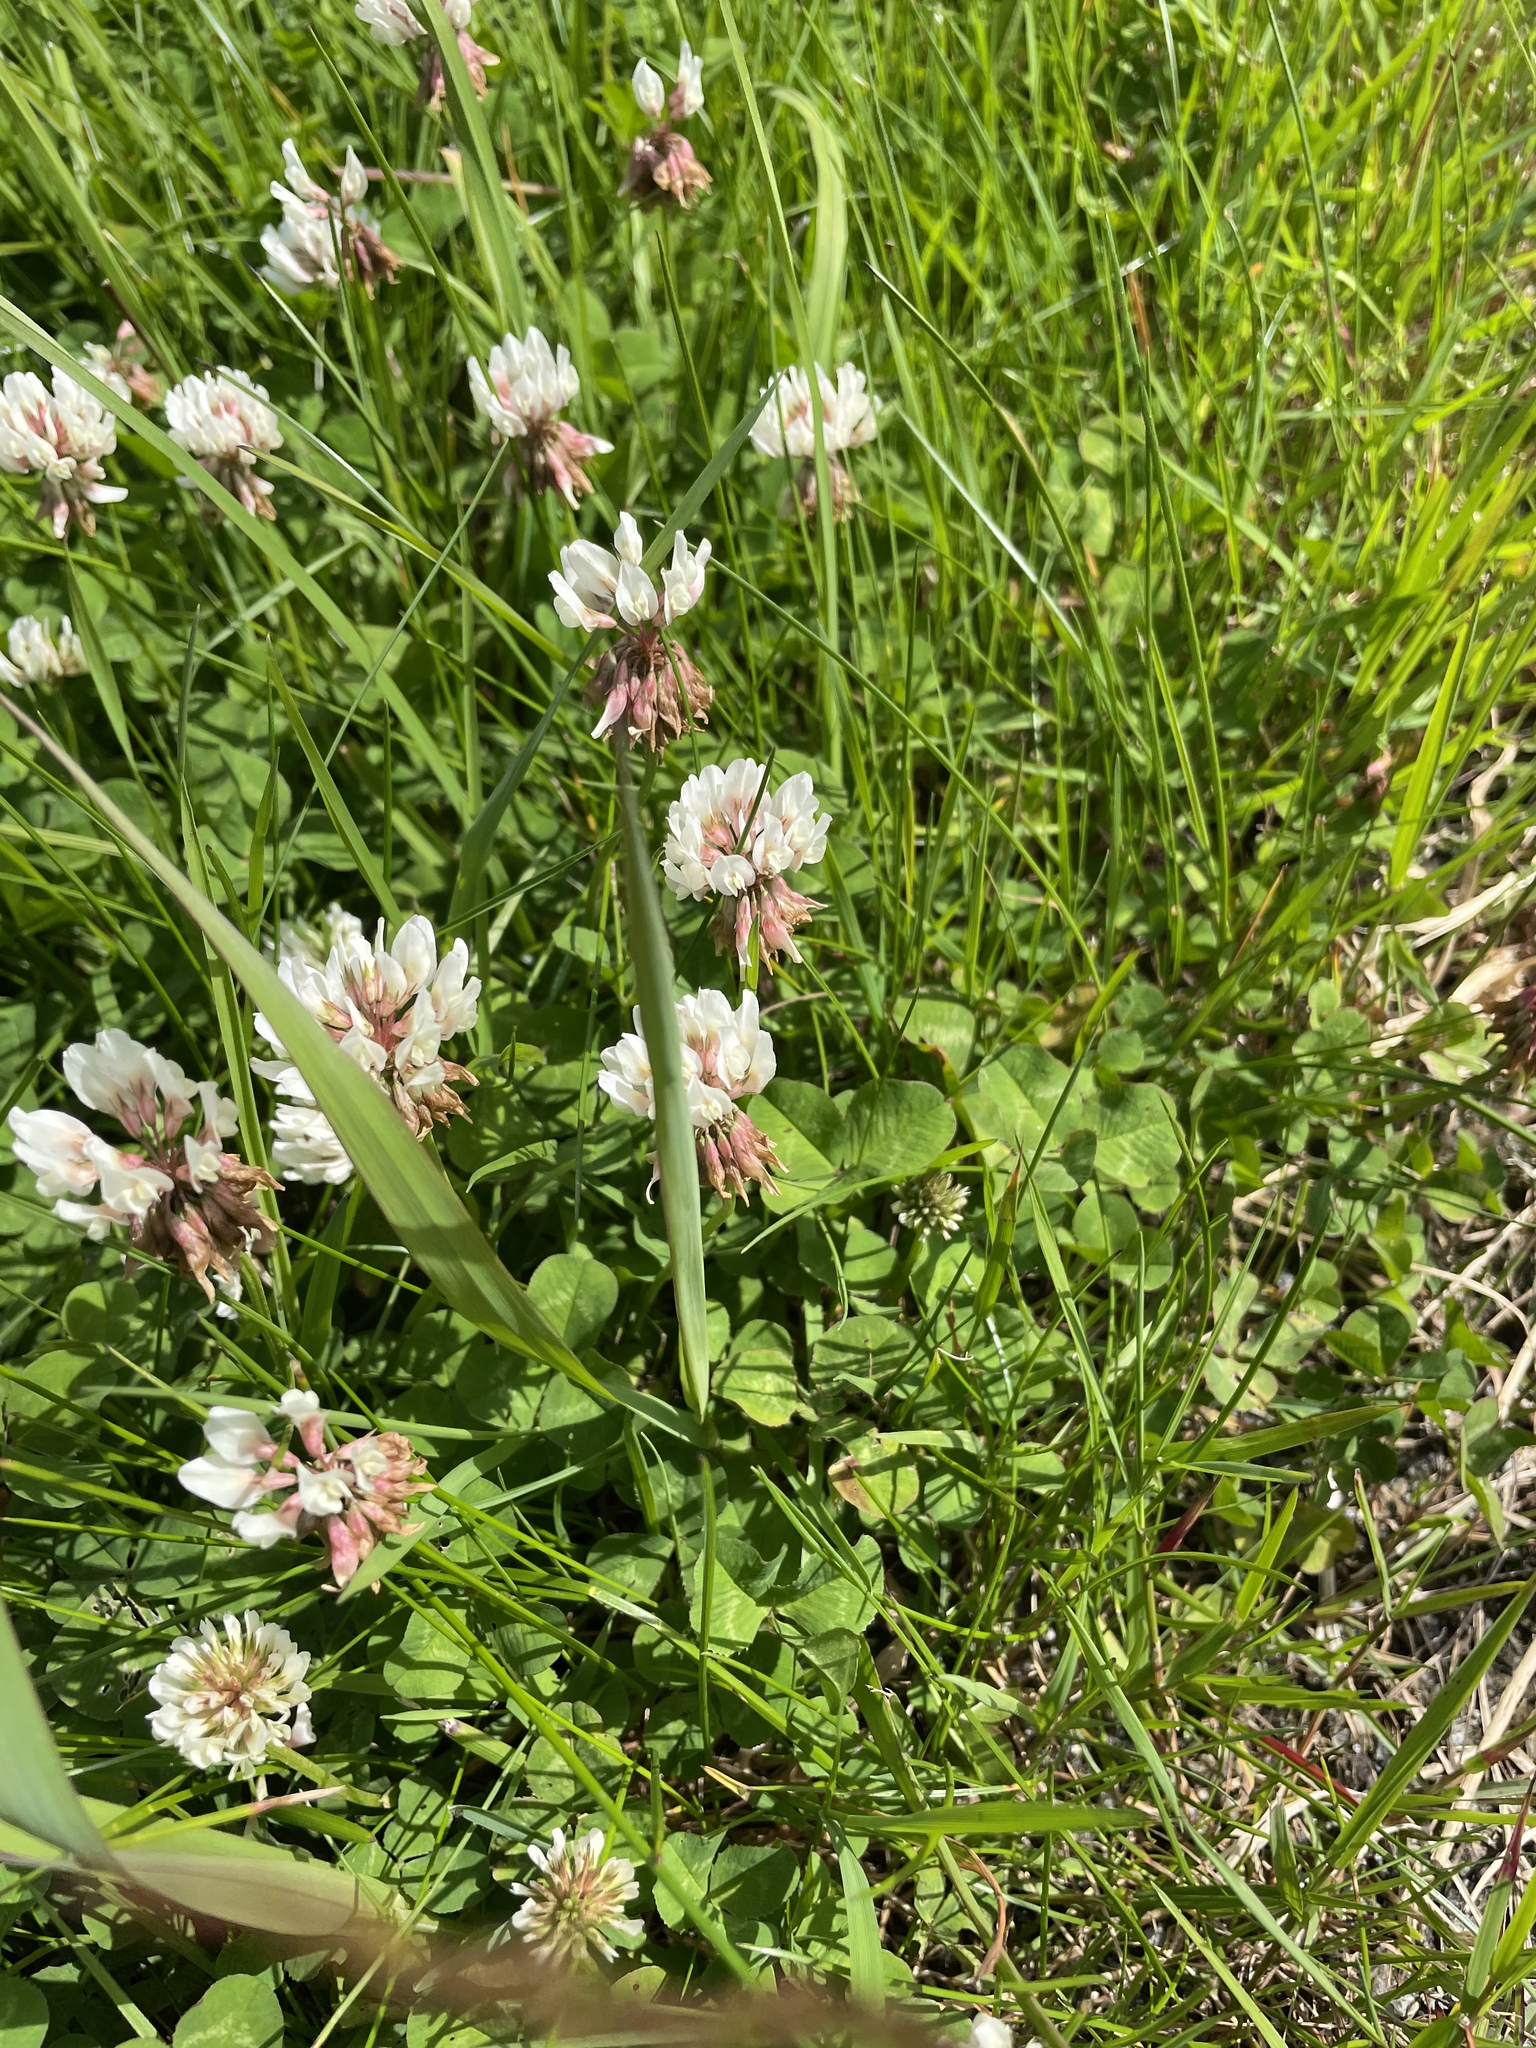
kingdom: Plantae
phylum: Tracheophyta
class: Magnoliopsida
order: Fabales
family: Fabaceae
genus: Trifolium
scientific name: Trifolium repens
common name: White clover
